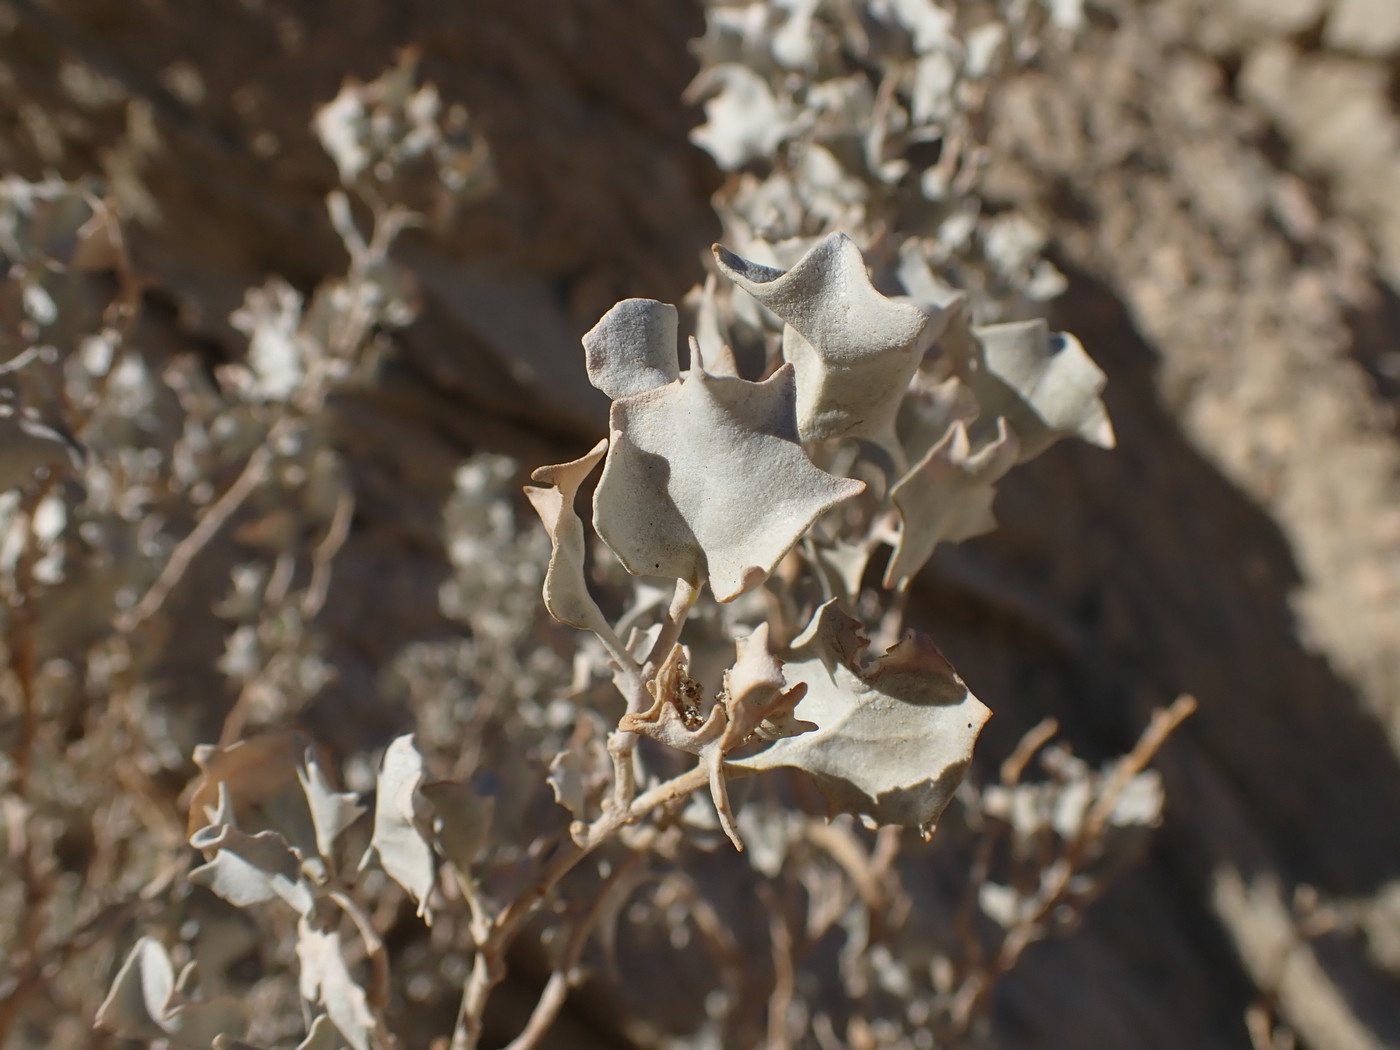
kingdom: Plantae
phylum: Tracheophyta
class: Magnoliopsida
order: Caryophyllales
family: Amaranthaceae
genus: Atriplex
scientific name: Atriplex hymenelytra
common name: Desert-holly
